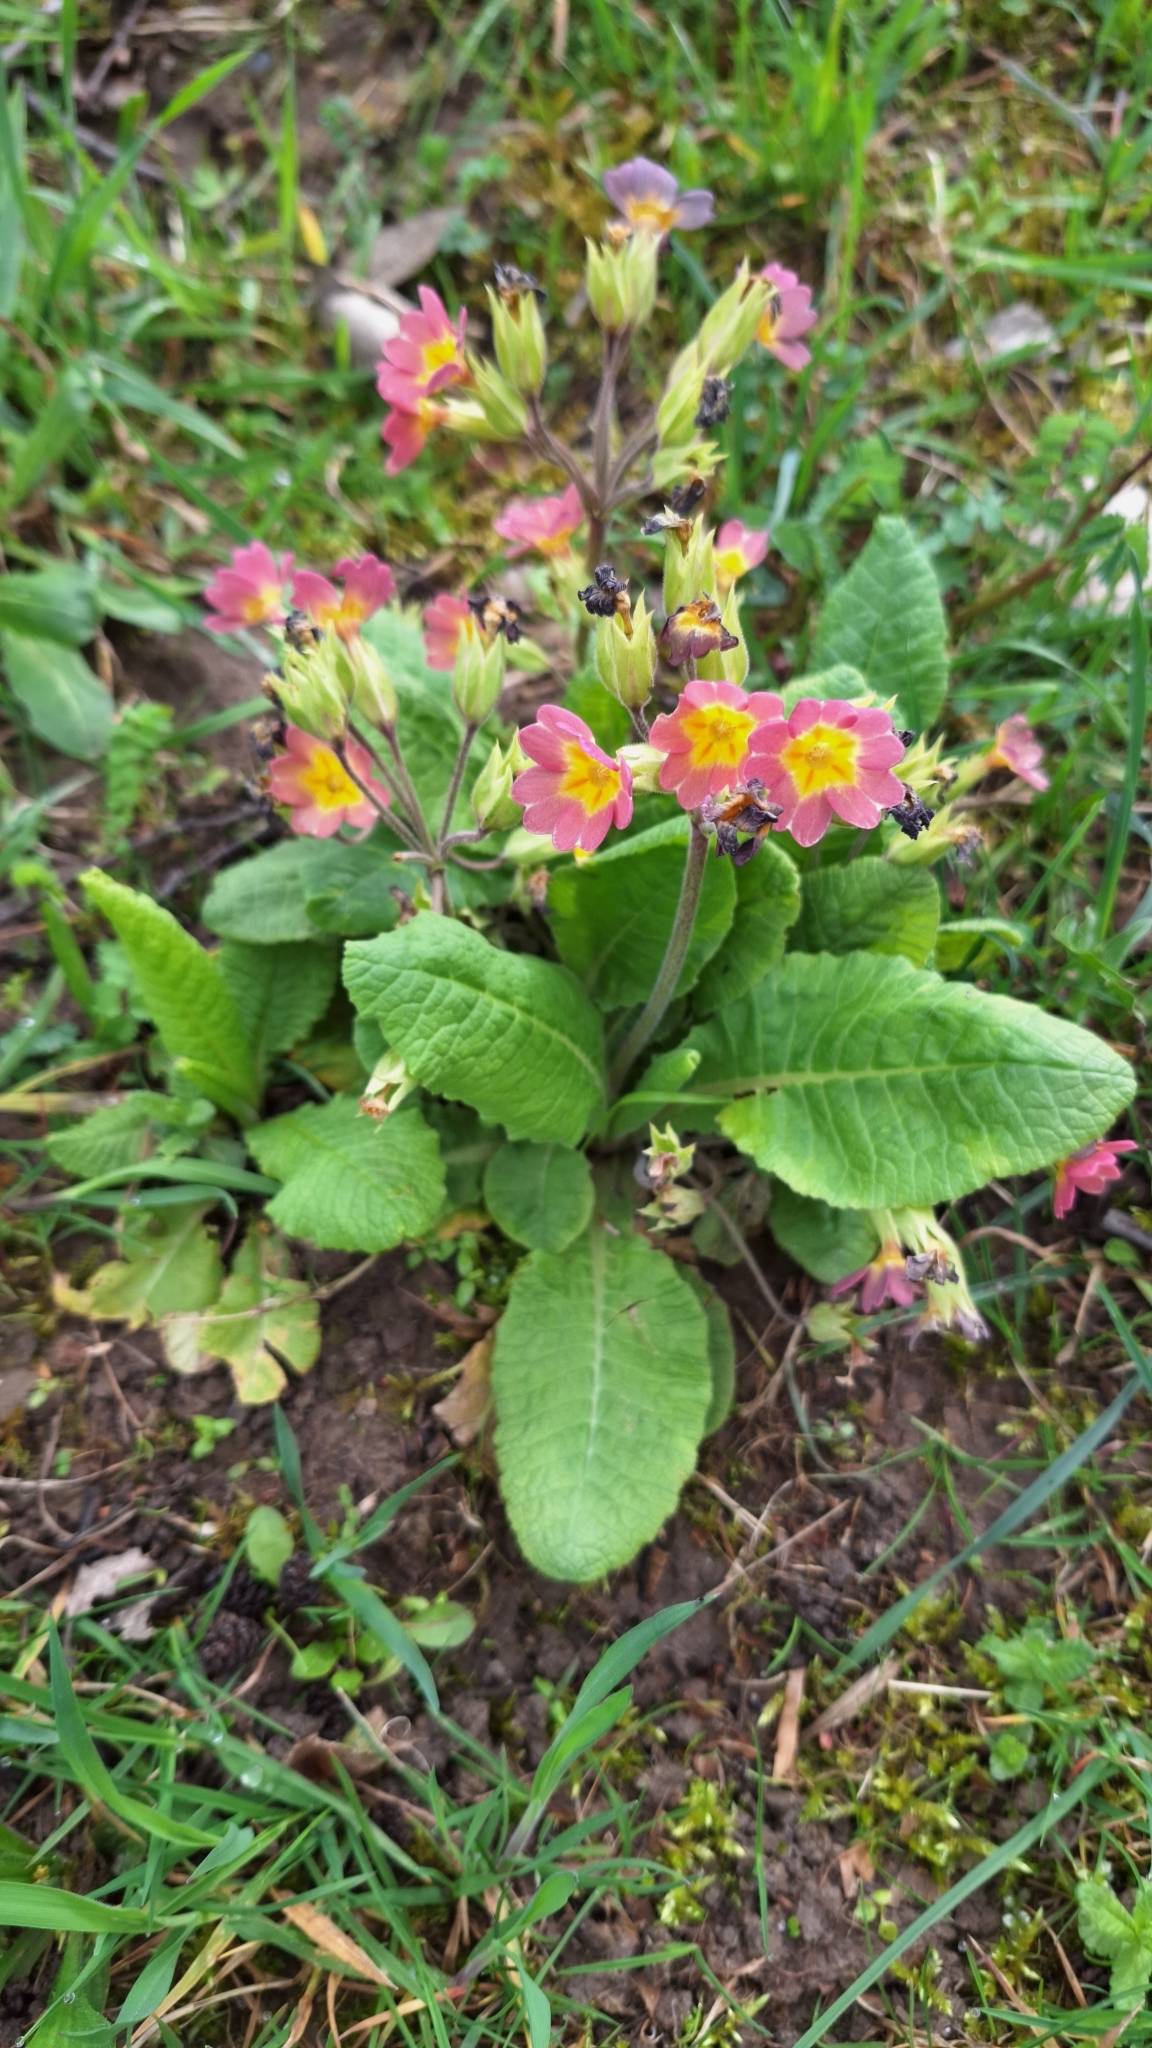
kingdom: Plantae
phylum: Tracheophyta
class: Magnoliopsida
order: Ericales
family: Primulaceae
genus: Primula
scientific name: Primula vulgaris
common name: Primrose
